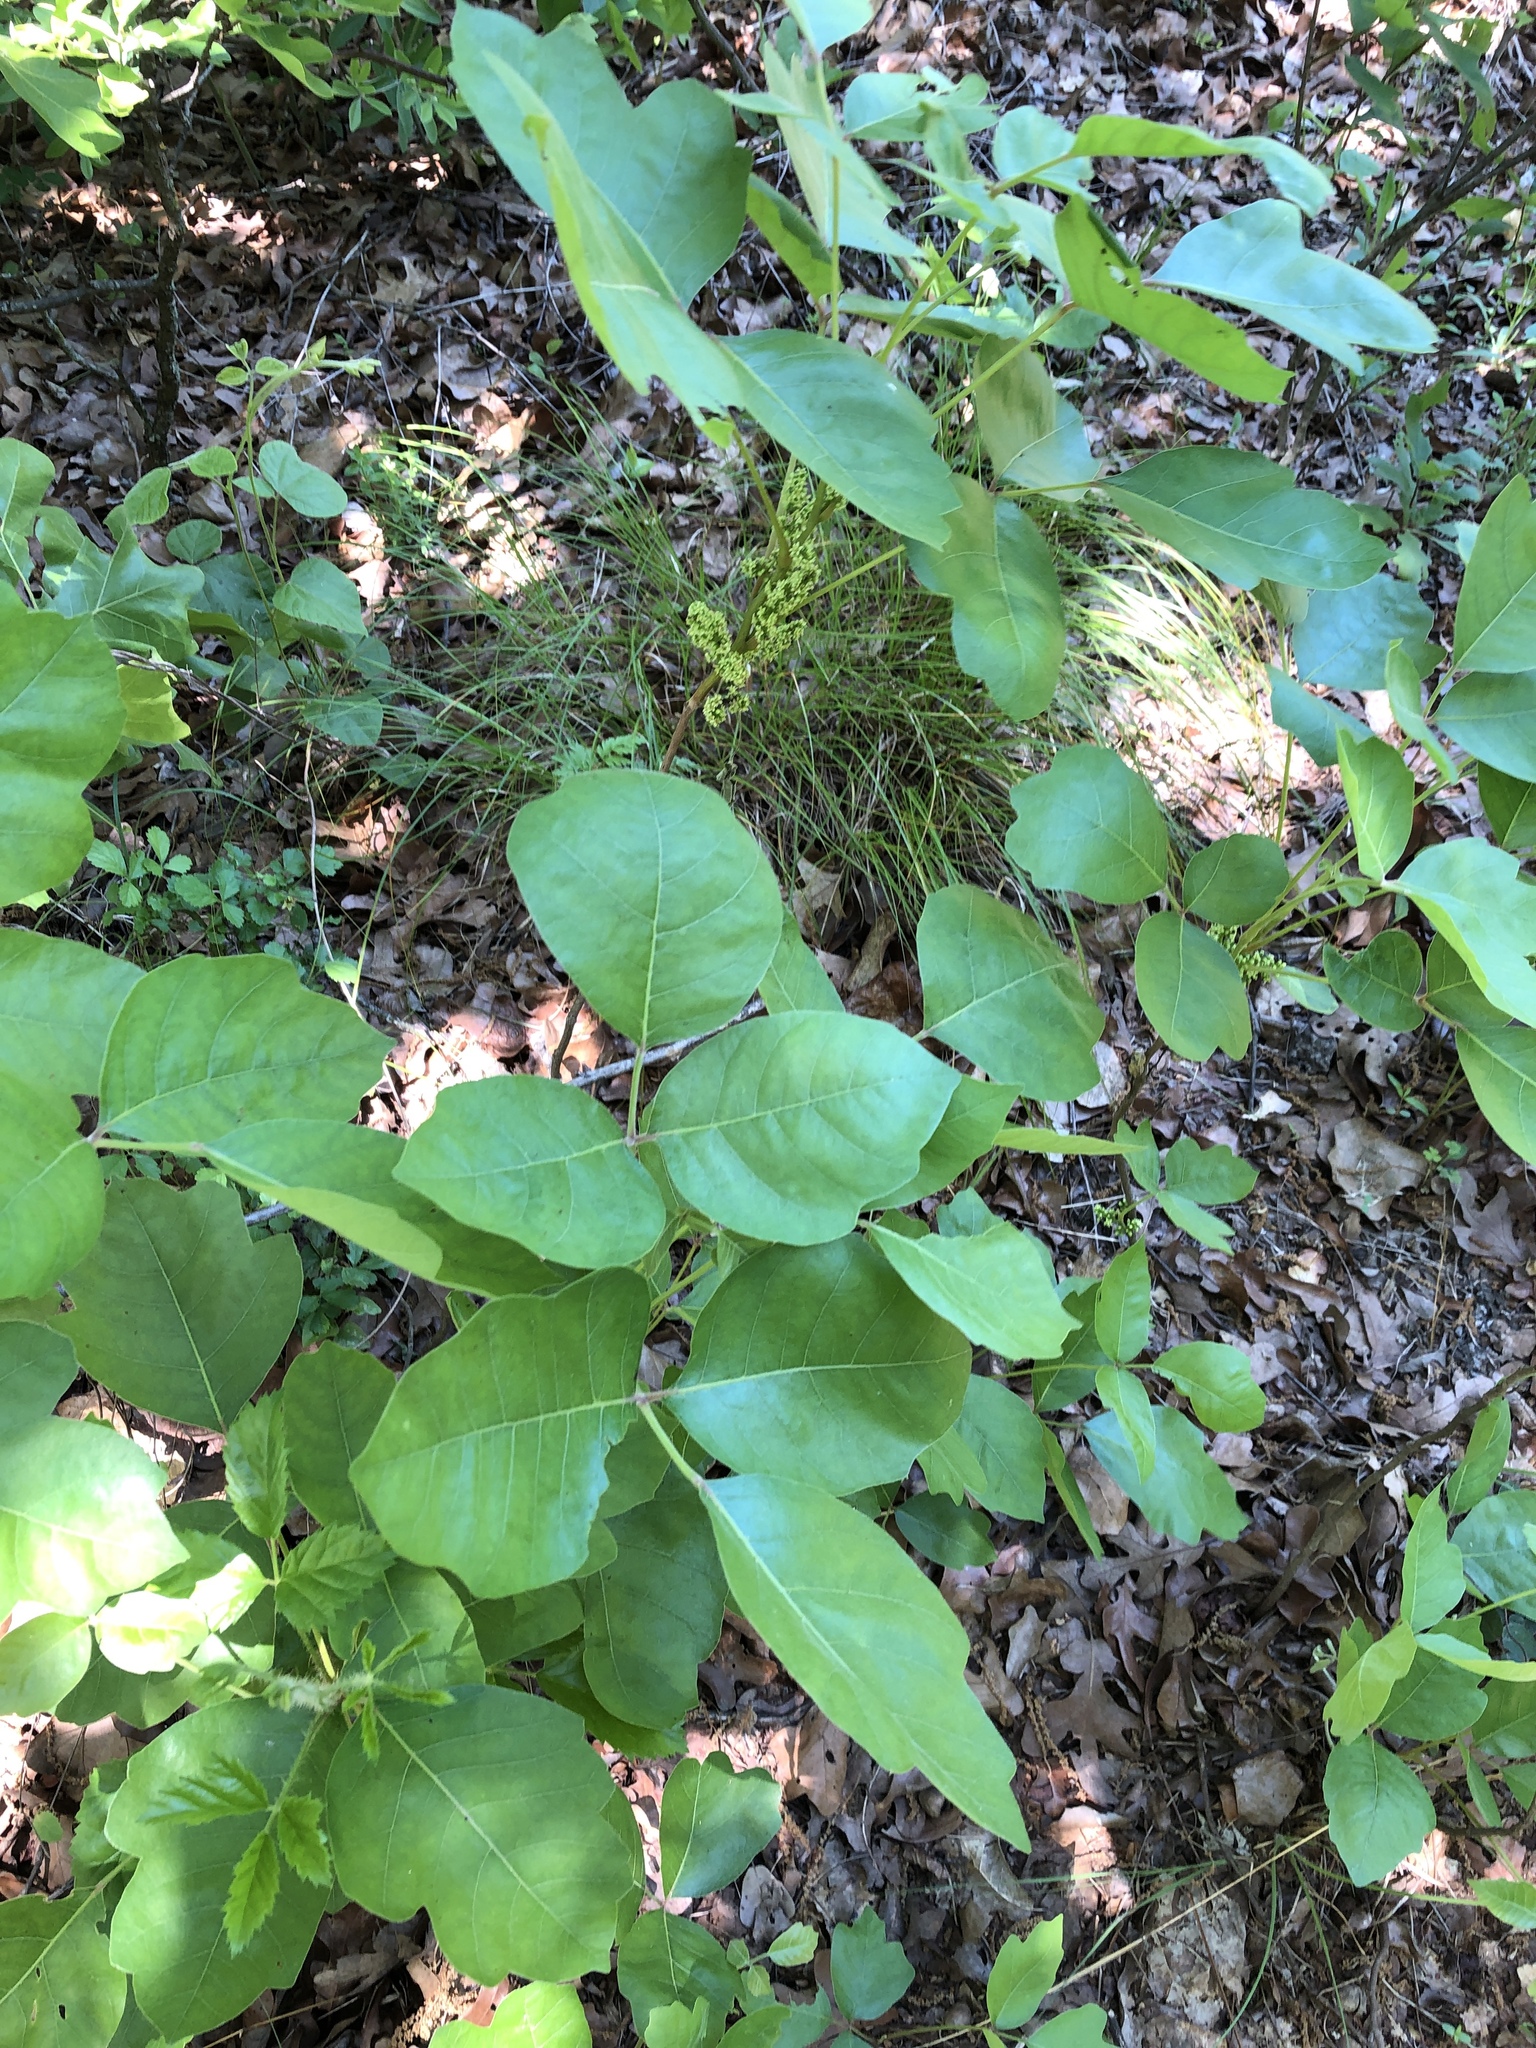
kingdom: Plantae
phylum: Tracheophyta
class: Magnoliopsida
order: Sapindales
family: Anacardiaceae
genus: Toxicodendron
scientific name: Toxicodendron radicans
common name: Poison ivy
